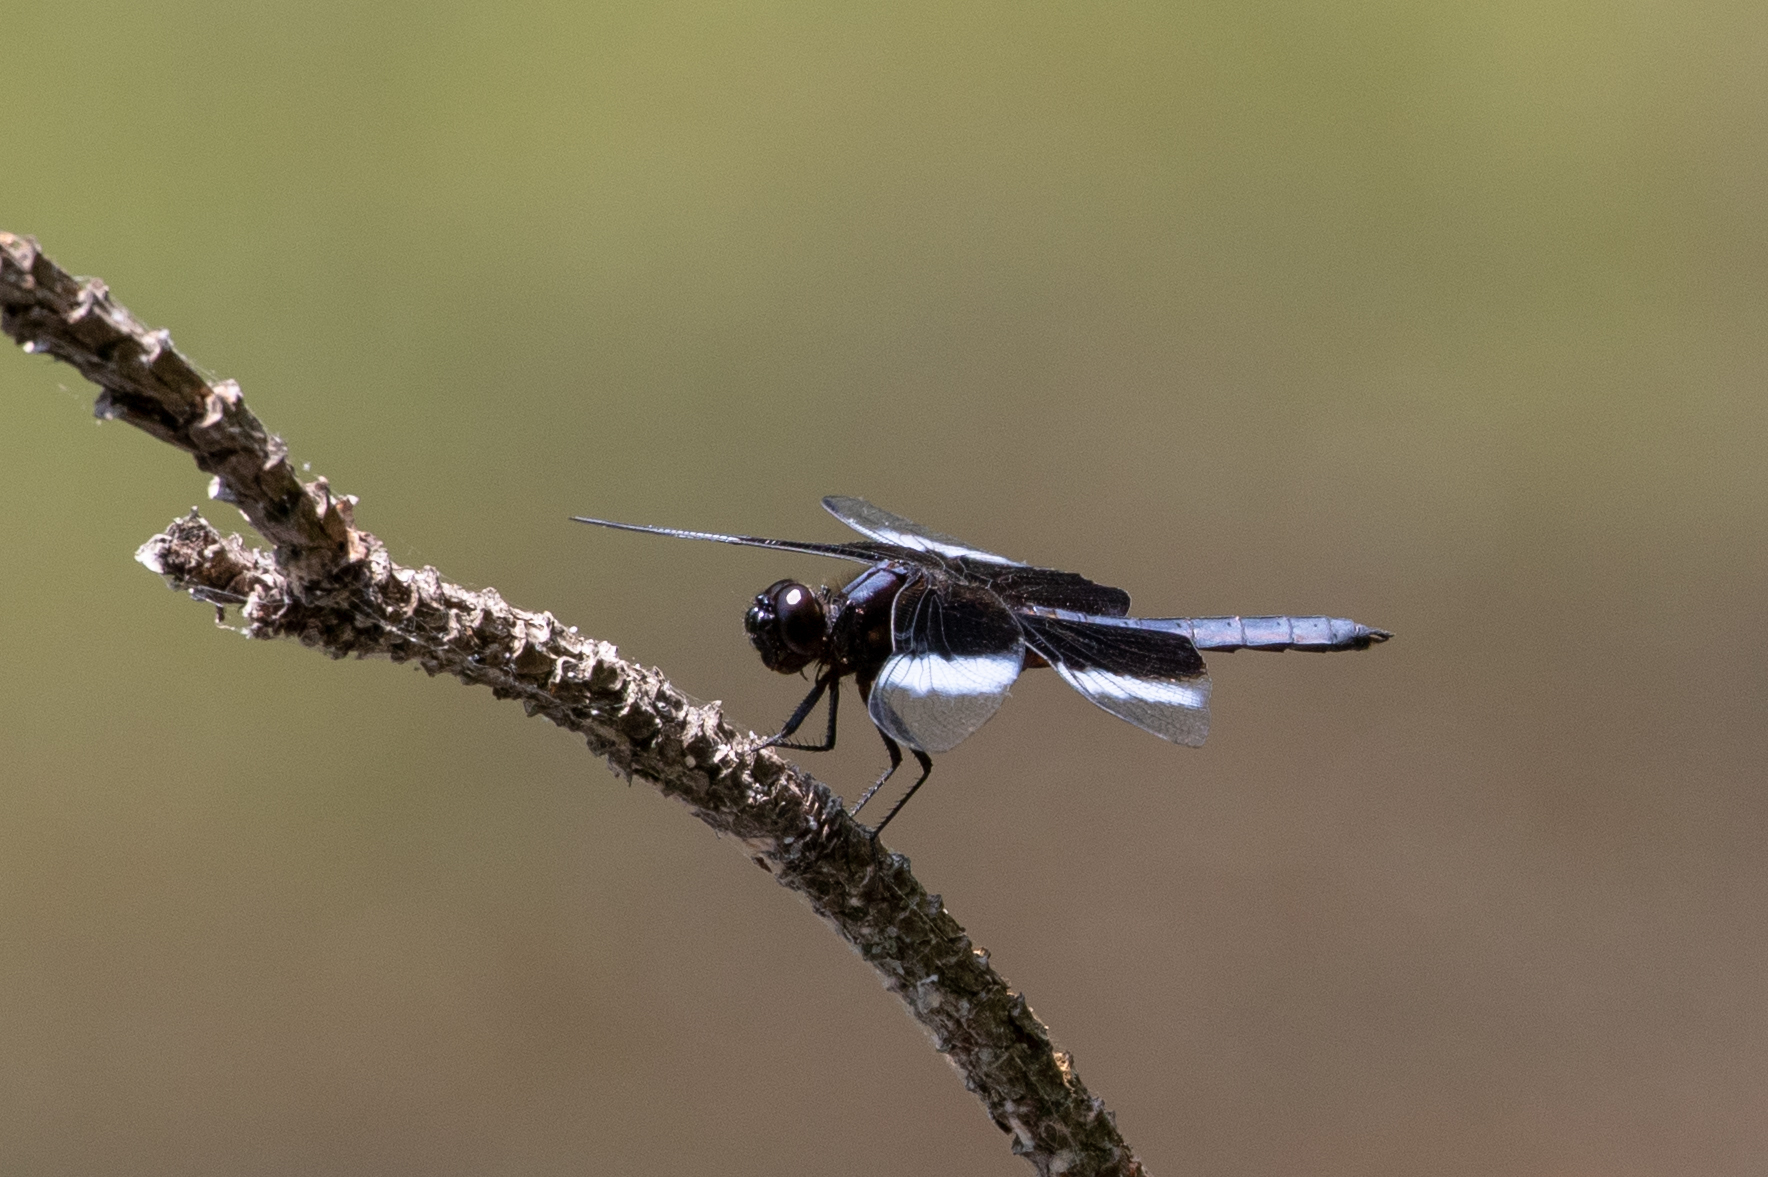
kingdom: Animalia
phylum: Arthropoda
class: Insecta
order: Odonata
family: Libellulidae
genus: Libellula
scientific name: Libellula luctuosa
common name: Widow skimmer
